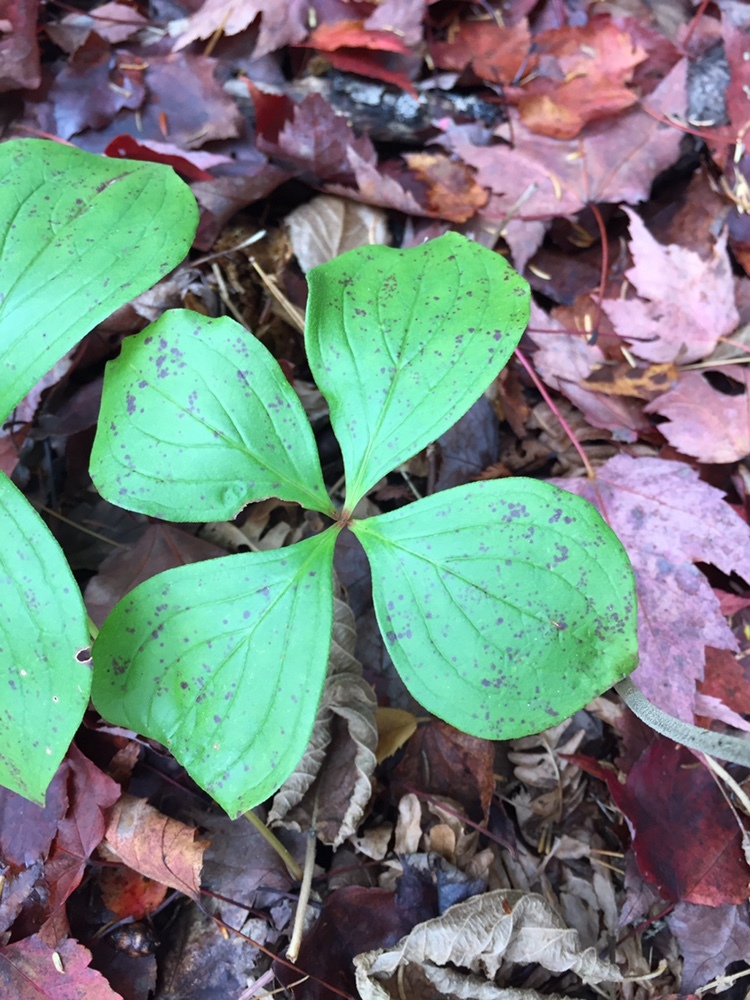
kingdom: Plantae
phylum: Tracheophyta
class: Magnoliopsida
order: Cornales
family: Cornaceae
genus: Cornus
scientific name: Cornus canadensis
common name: Creeping dogwood
